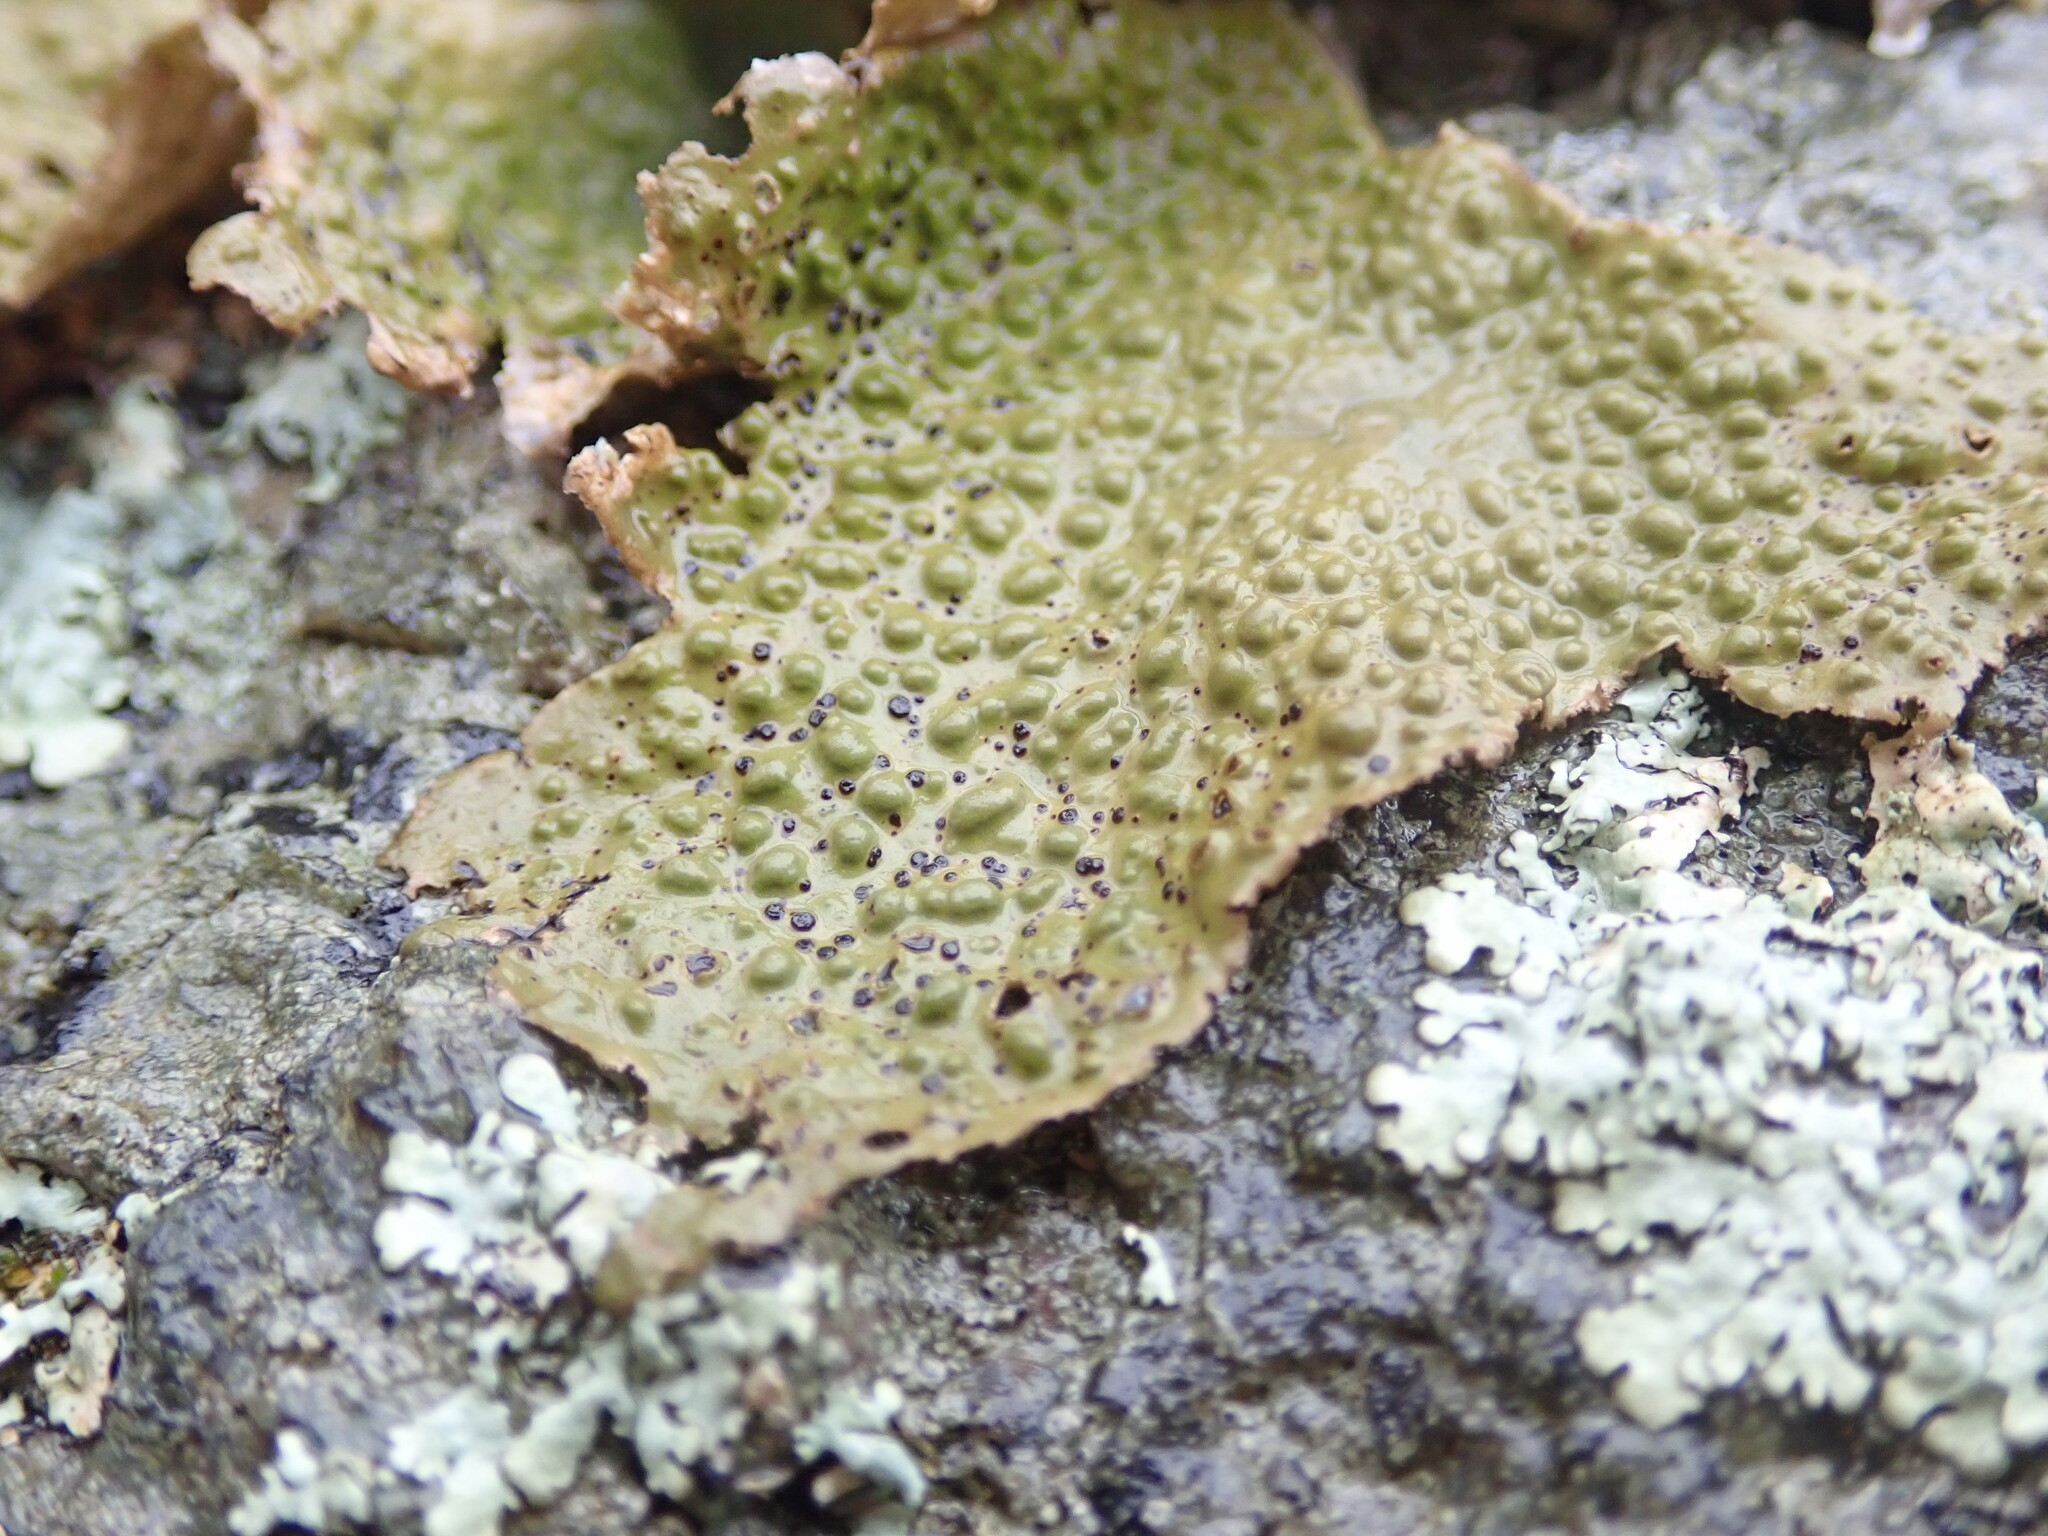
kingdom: Fungi
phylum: Ascomycota
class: Lecanoromycetes
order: Umbilicariales
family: Umbilicariaceae
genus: Lasallia
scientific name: Lasallia papulosa
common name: Common toadskin lichen
